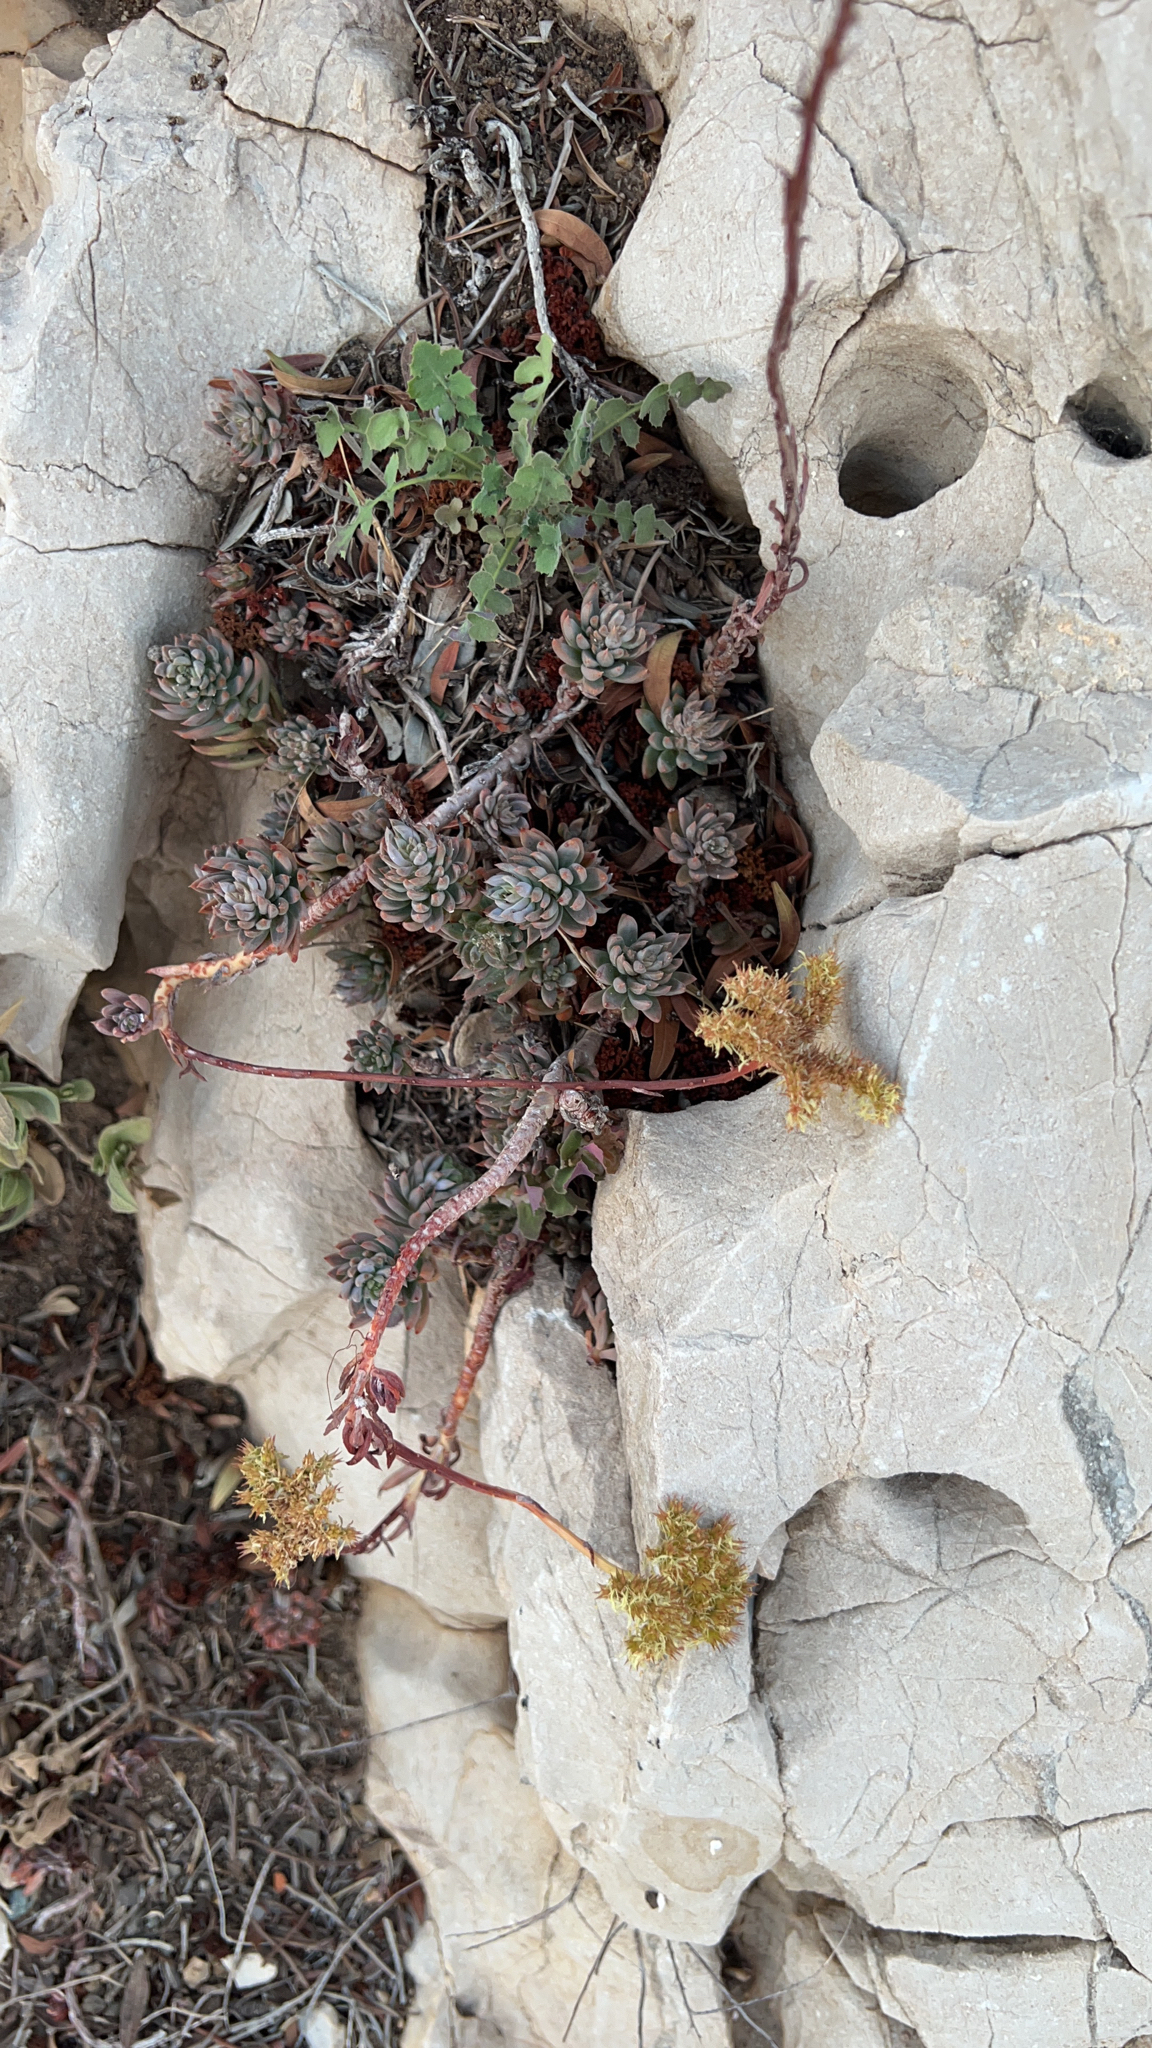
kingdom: Plantae
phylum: Tracheophyta
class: Magnoliopsida
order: Saxifragales
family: Crassulaceae
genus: Petrosedum
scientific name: Petrosedum sediforme
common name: Pale stonecrop
